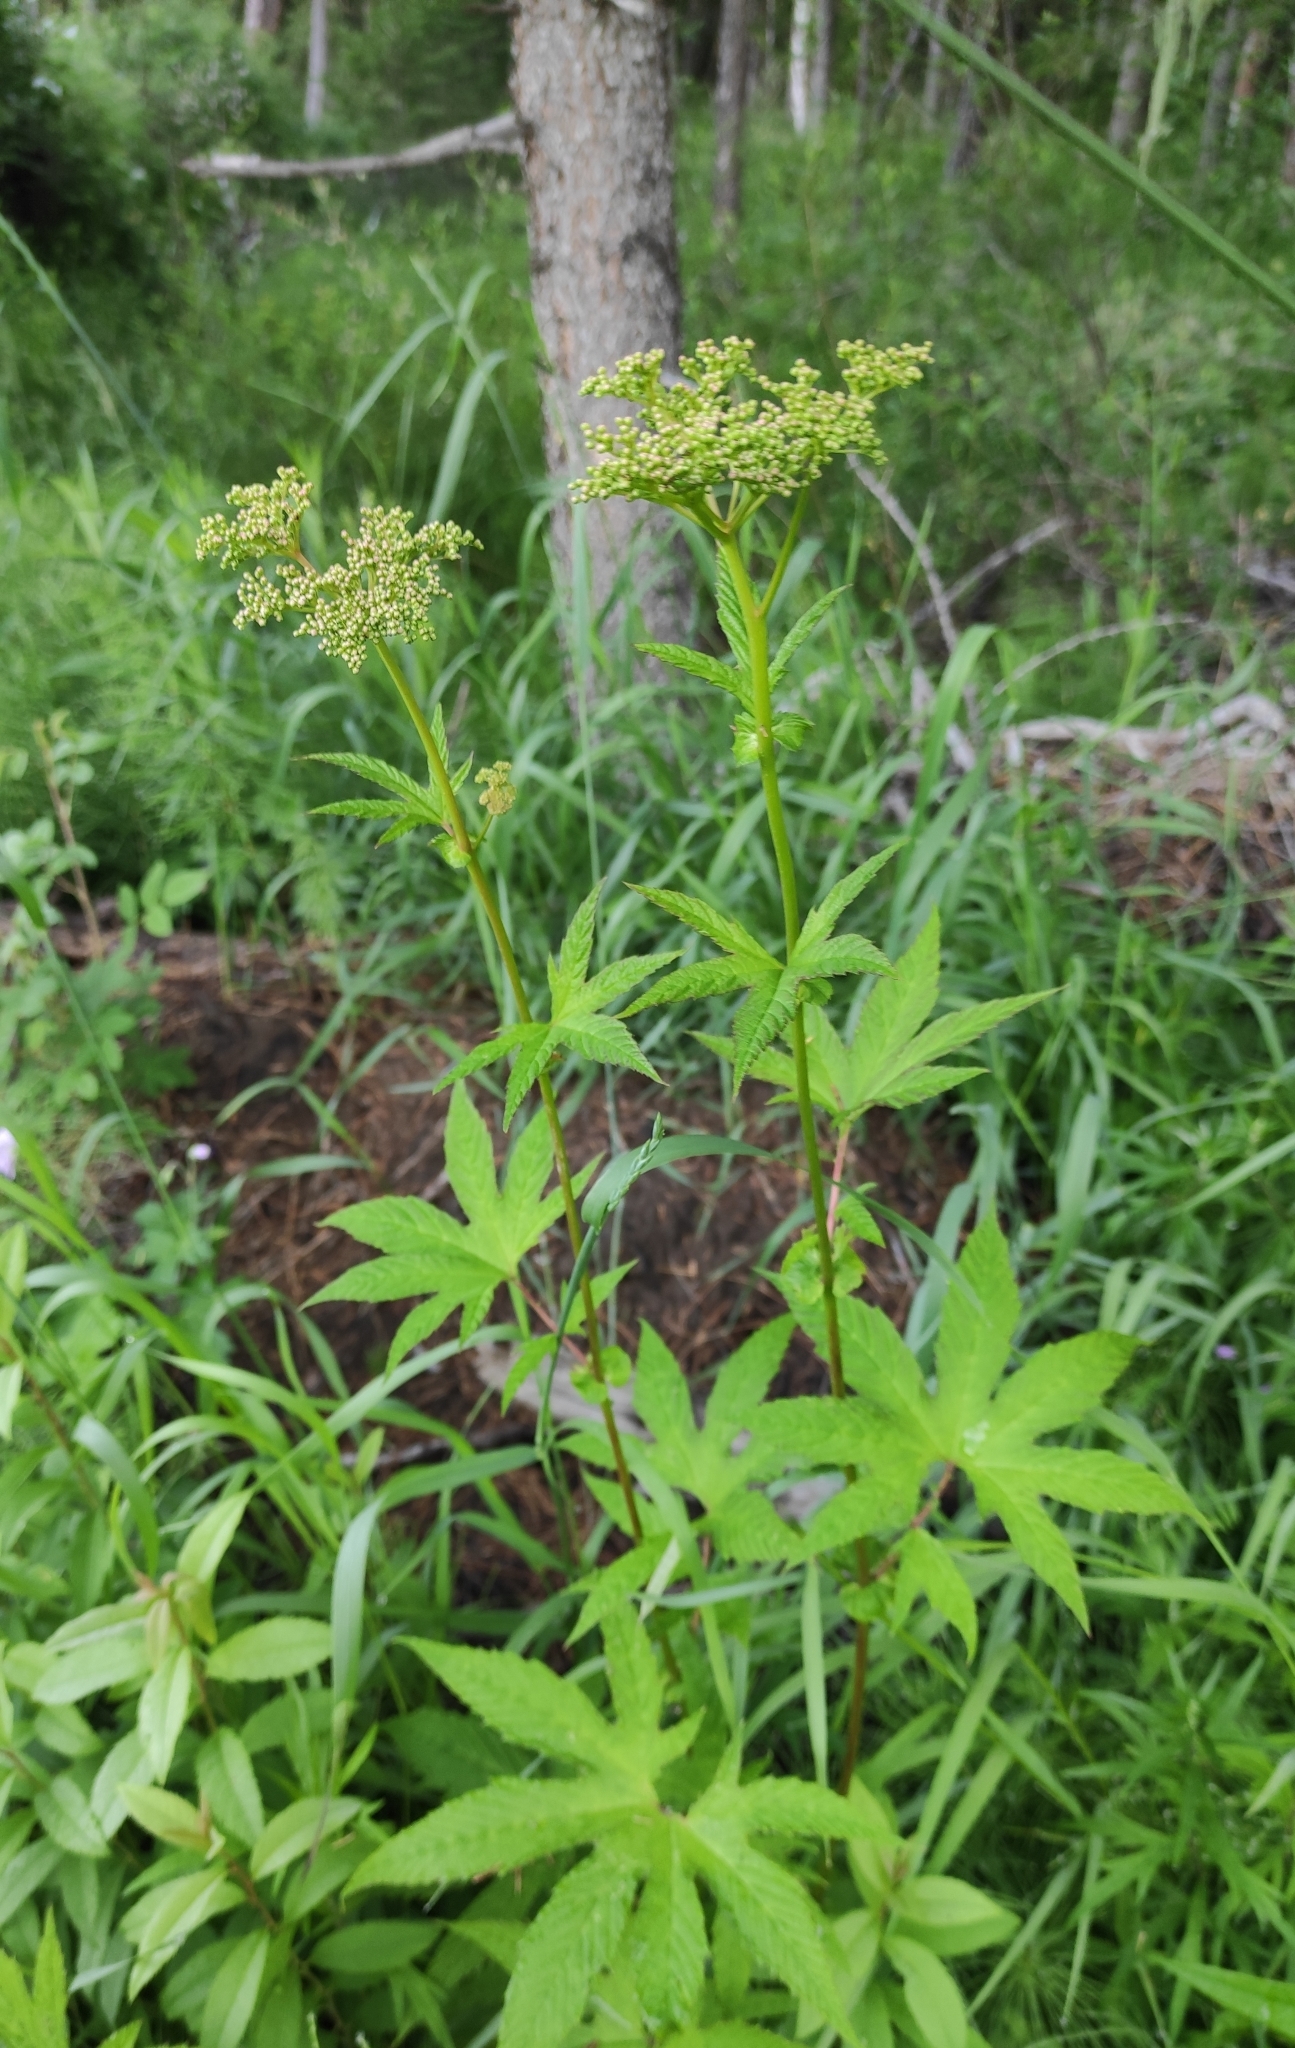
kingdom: Plantae
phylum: Tracheophyta
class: Magnoliopsida
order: Rosales
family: Rosaceae
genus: Filipendula
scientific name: Filipendula digitata
